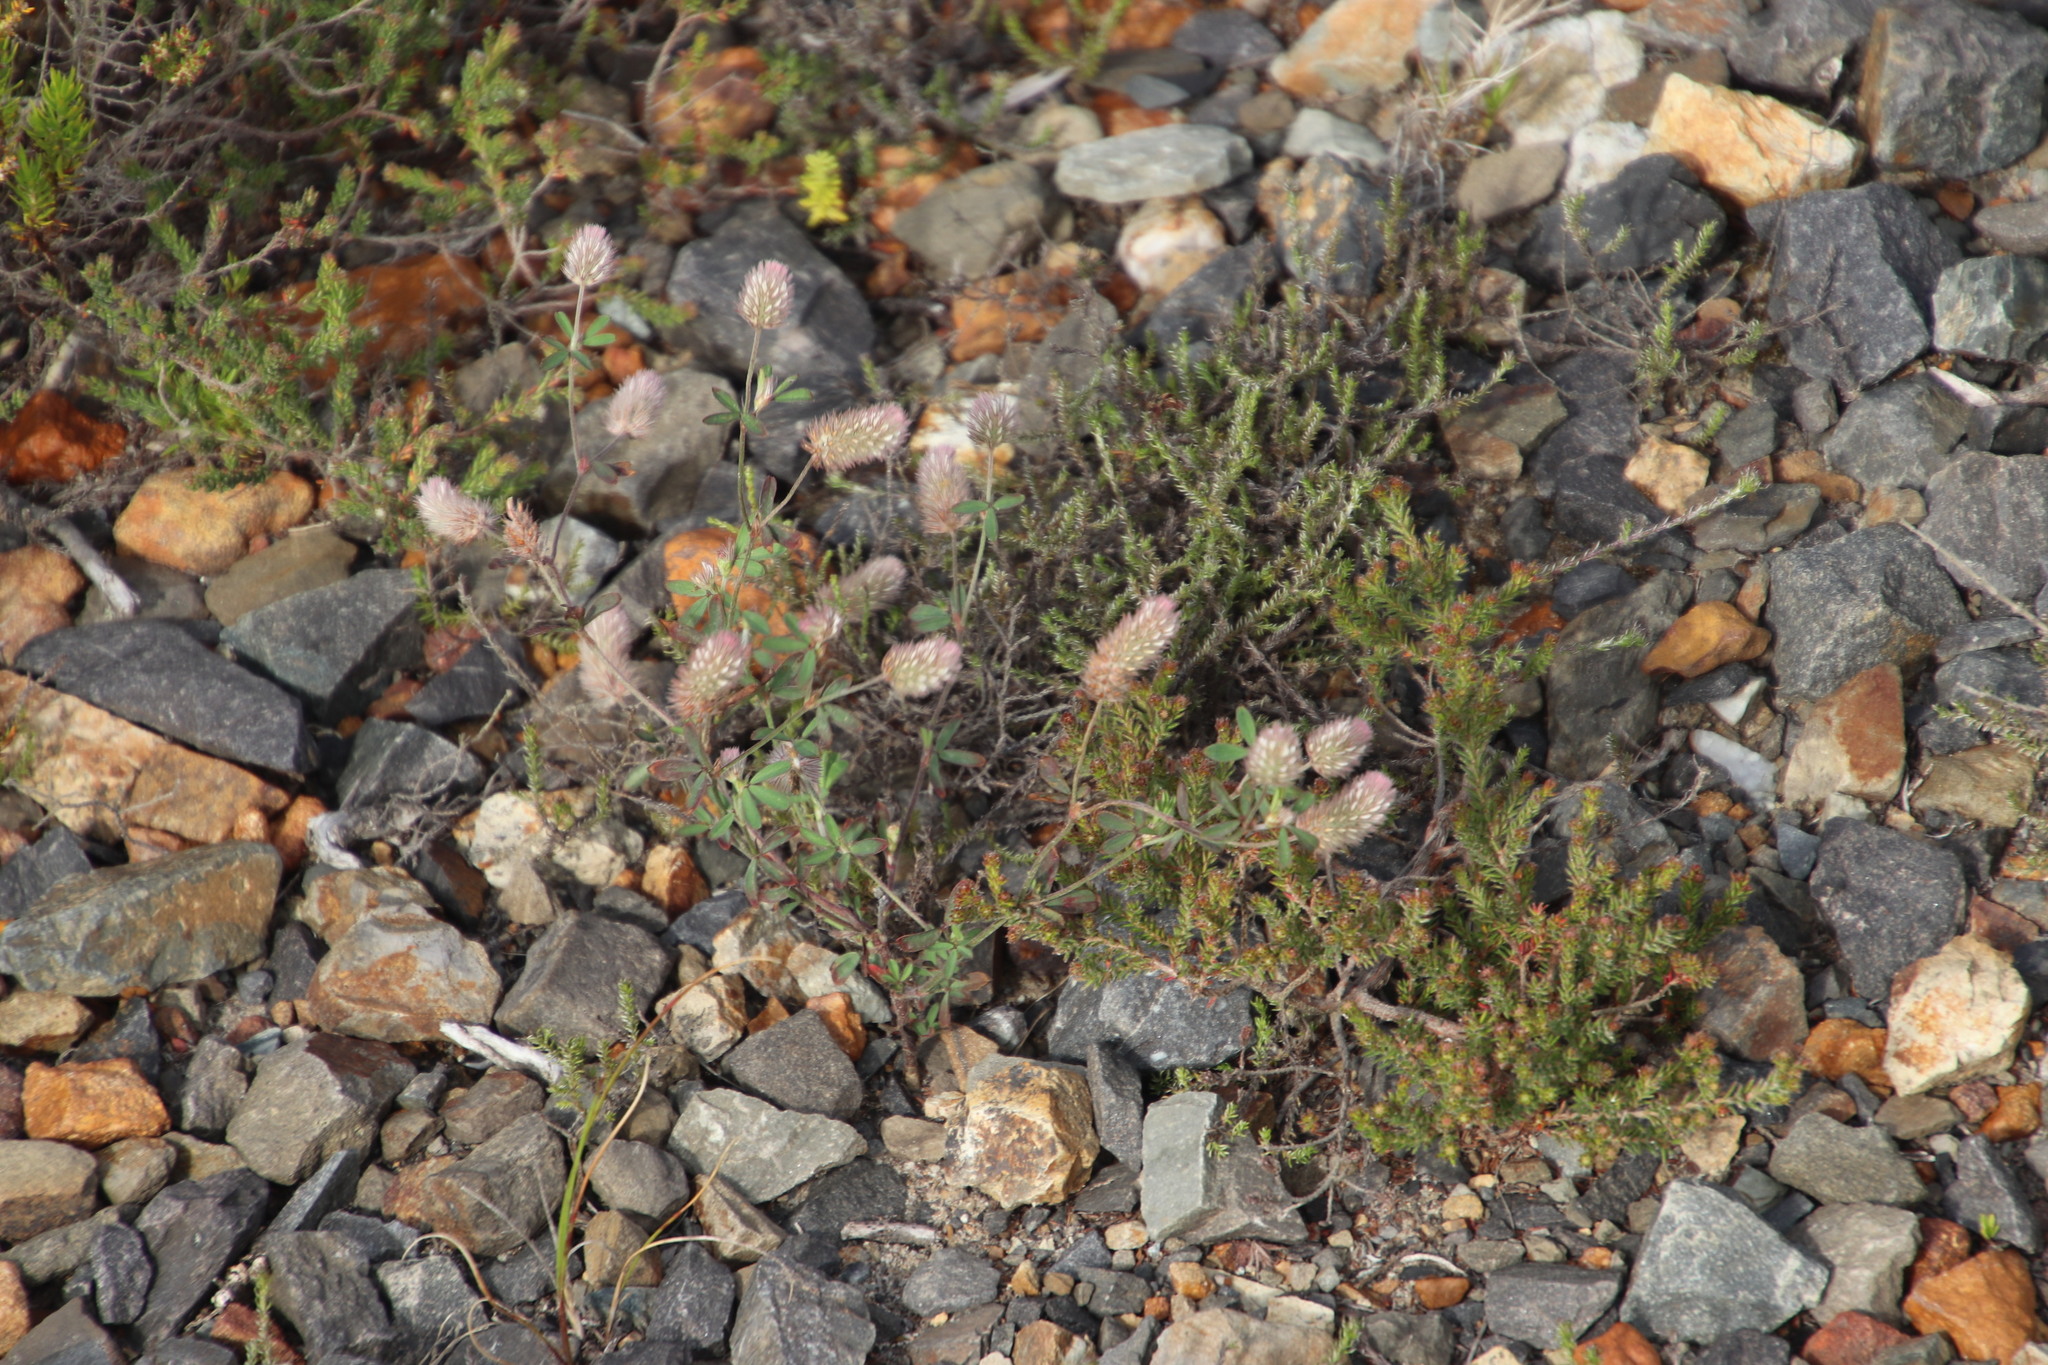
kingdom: Plantae
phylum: Tracheophyta
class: Magnoliopsida
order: Fabales
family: Fabaceae
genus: Trifolium
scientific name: Trifolium arvense
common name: Hare's-foot clover
